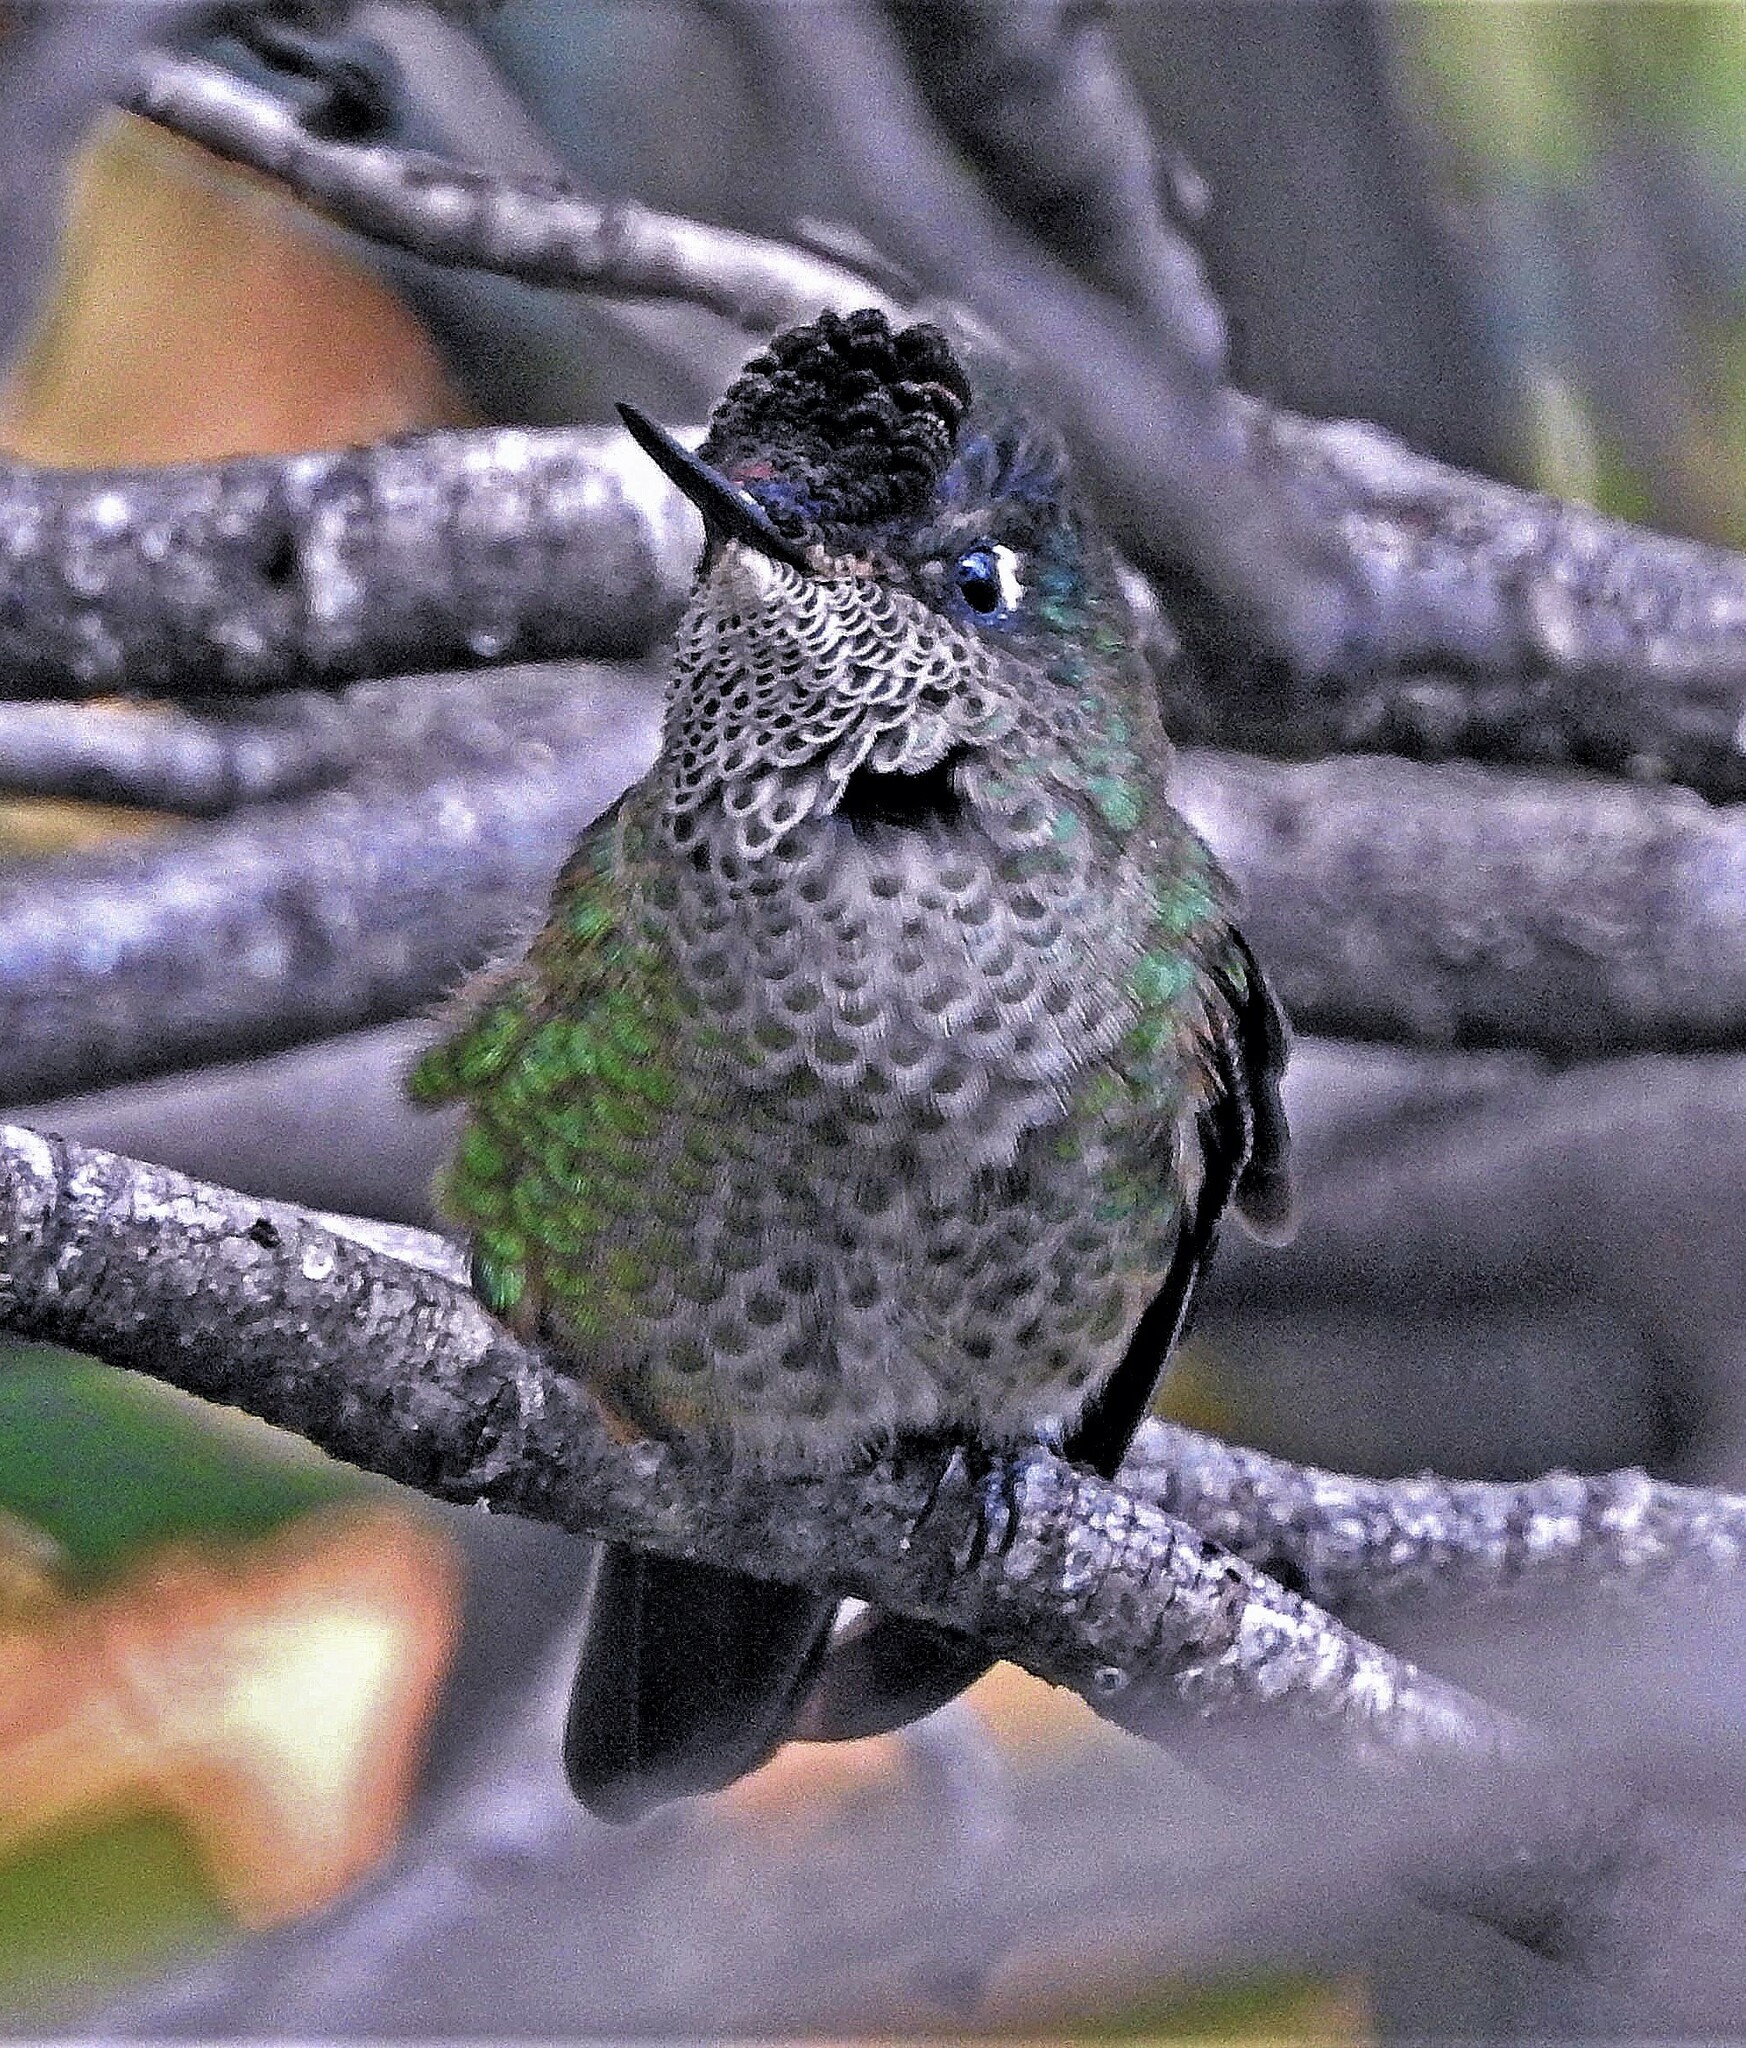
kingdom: Animalia
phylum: Chordata
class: Aves
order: Apodiformes
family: Trochilidae
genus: Sephanoides
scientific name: Sephanoides sephaniodes
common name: Green-backed firecrown
